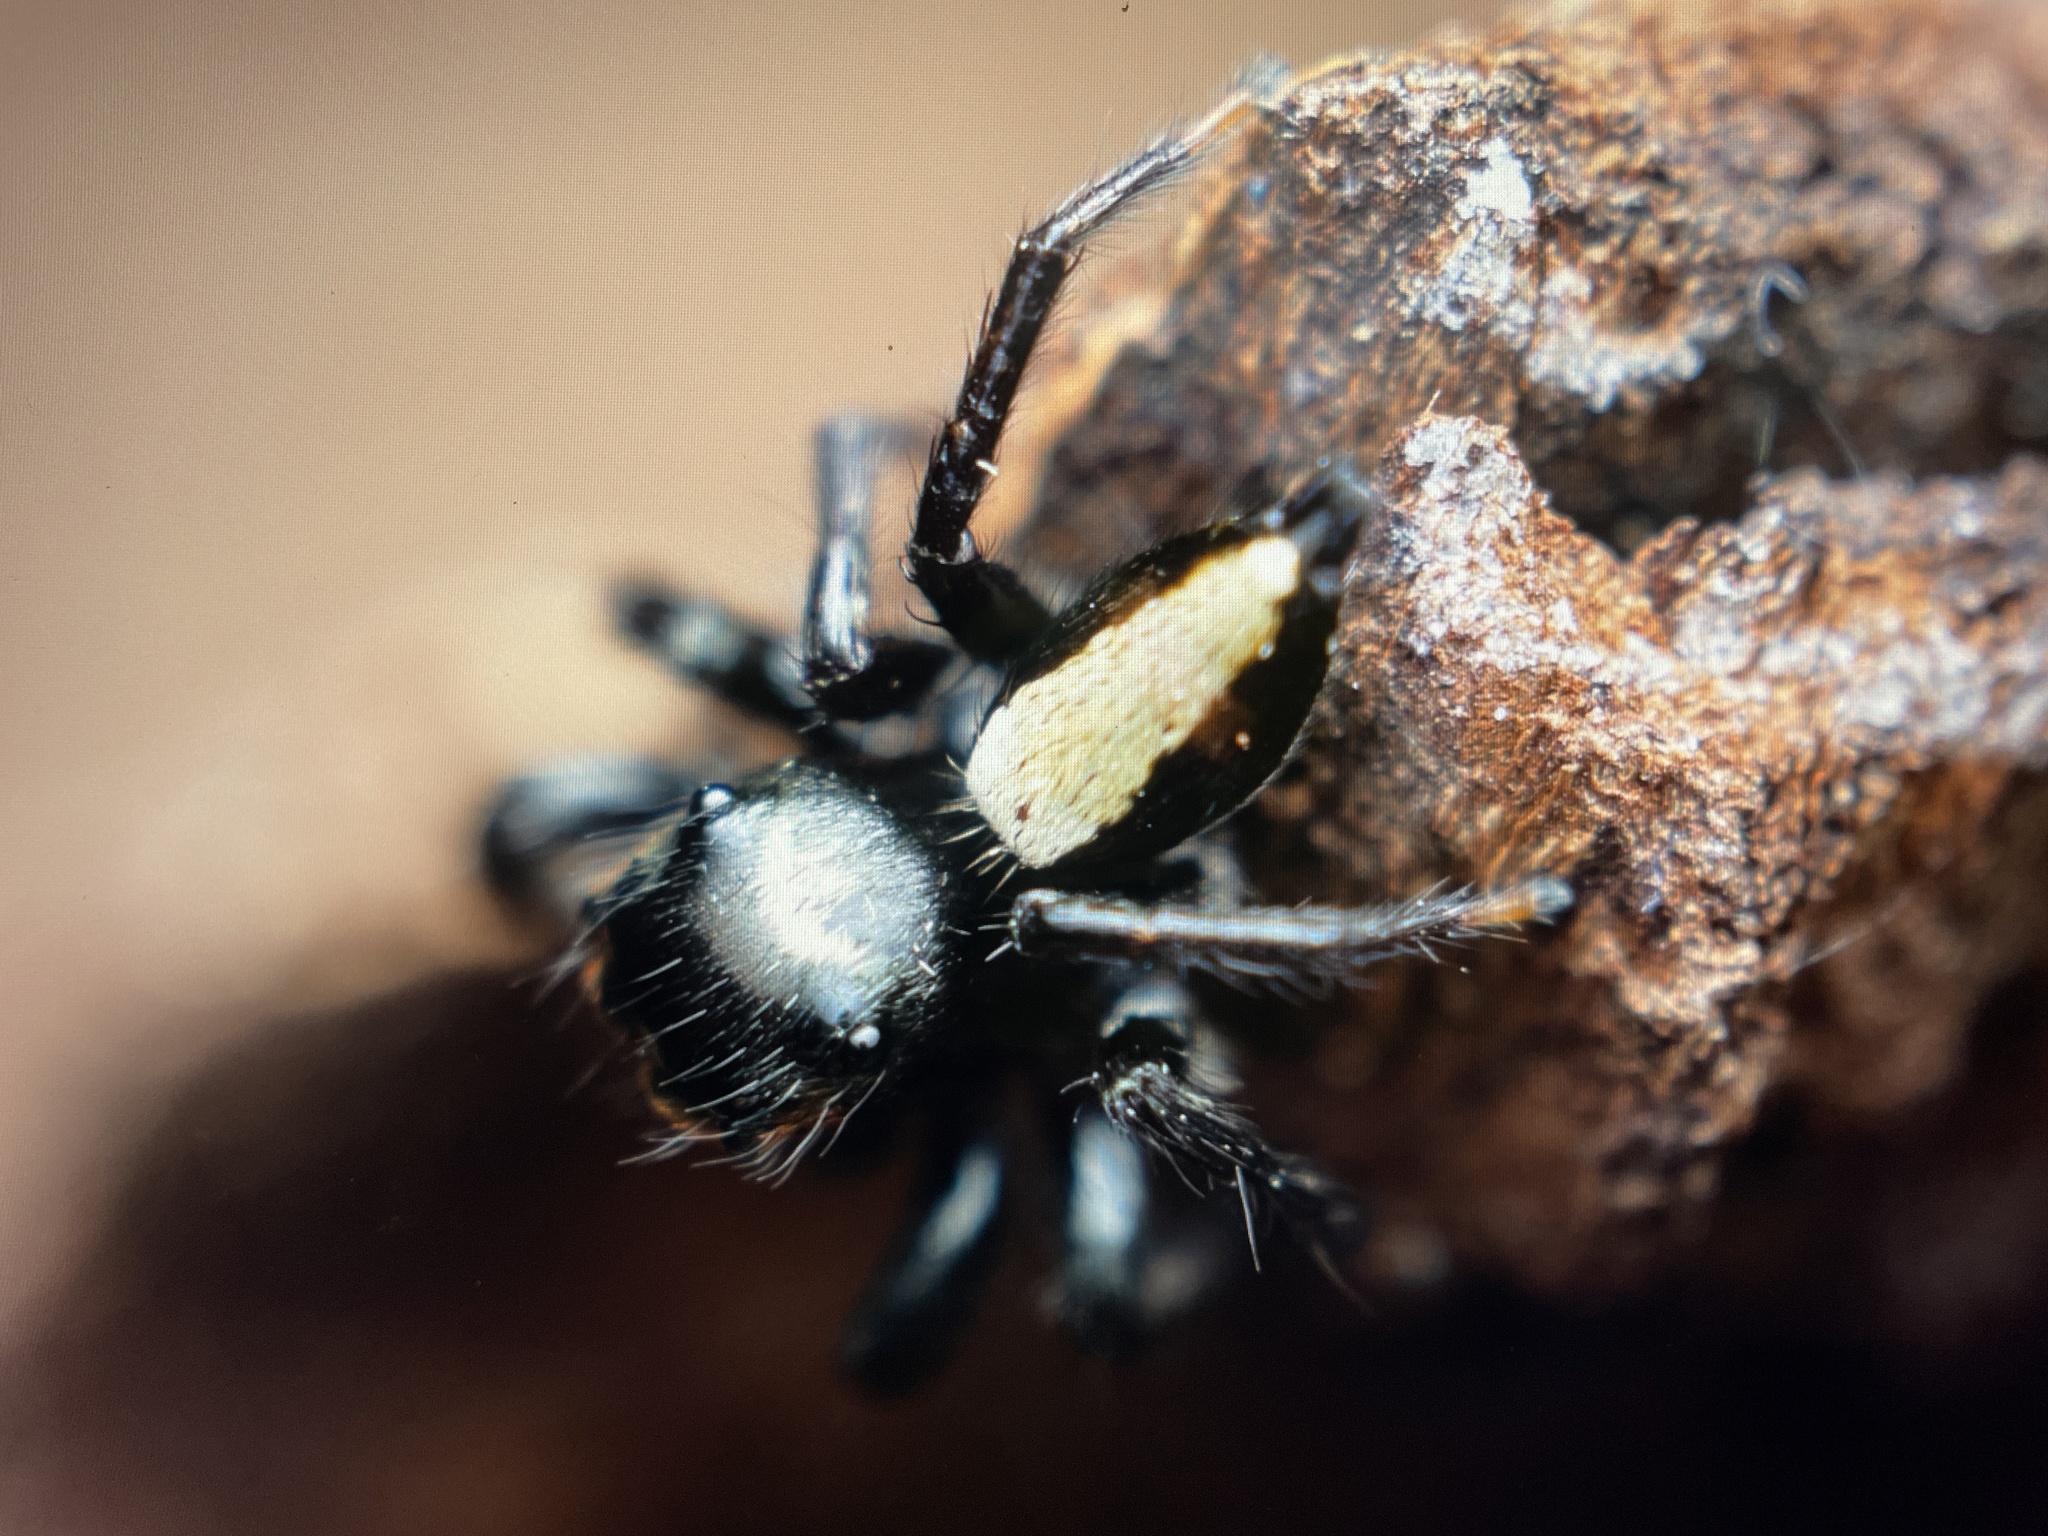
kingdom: Animalia
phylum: Arthropoda
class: Arachnida
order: Araneae
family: Salticidae
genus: Ptocasius
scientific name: Ptocasius strupifer
